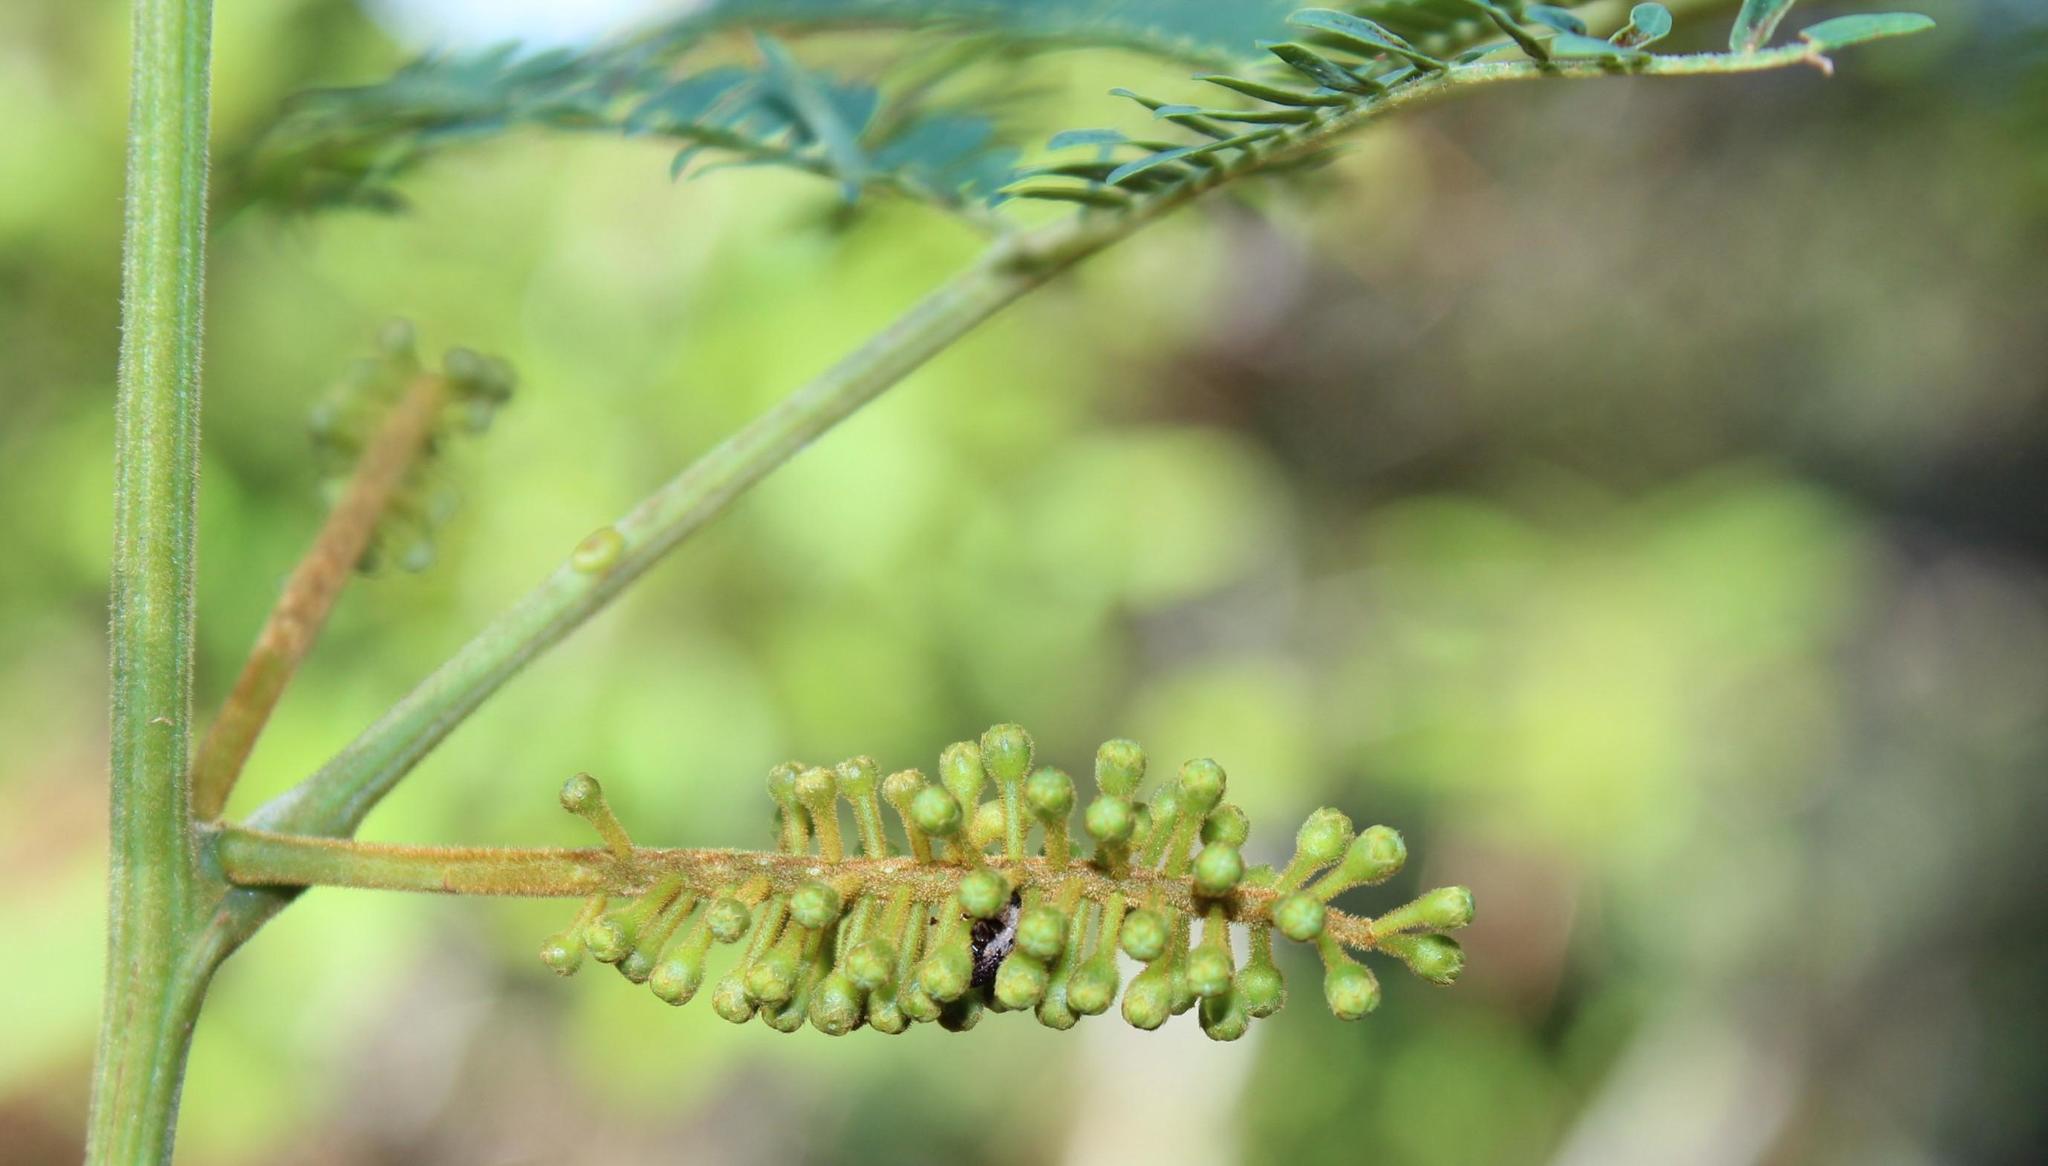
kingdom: Plantae
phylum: Tracheophyta
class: Magnoliopsida
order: Fabales
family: Fabaceae
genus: Paraserianthes
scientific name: Paraserianthes lophantha
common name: Plume albizia
